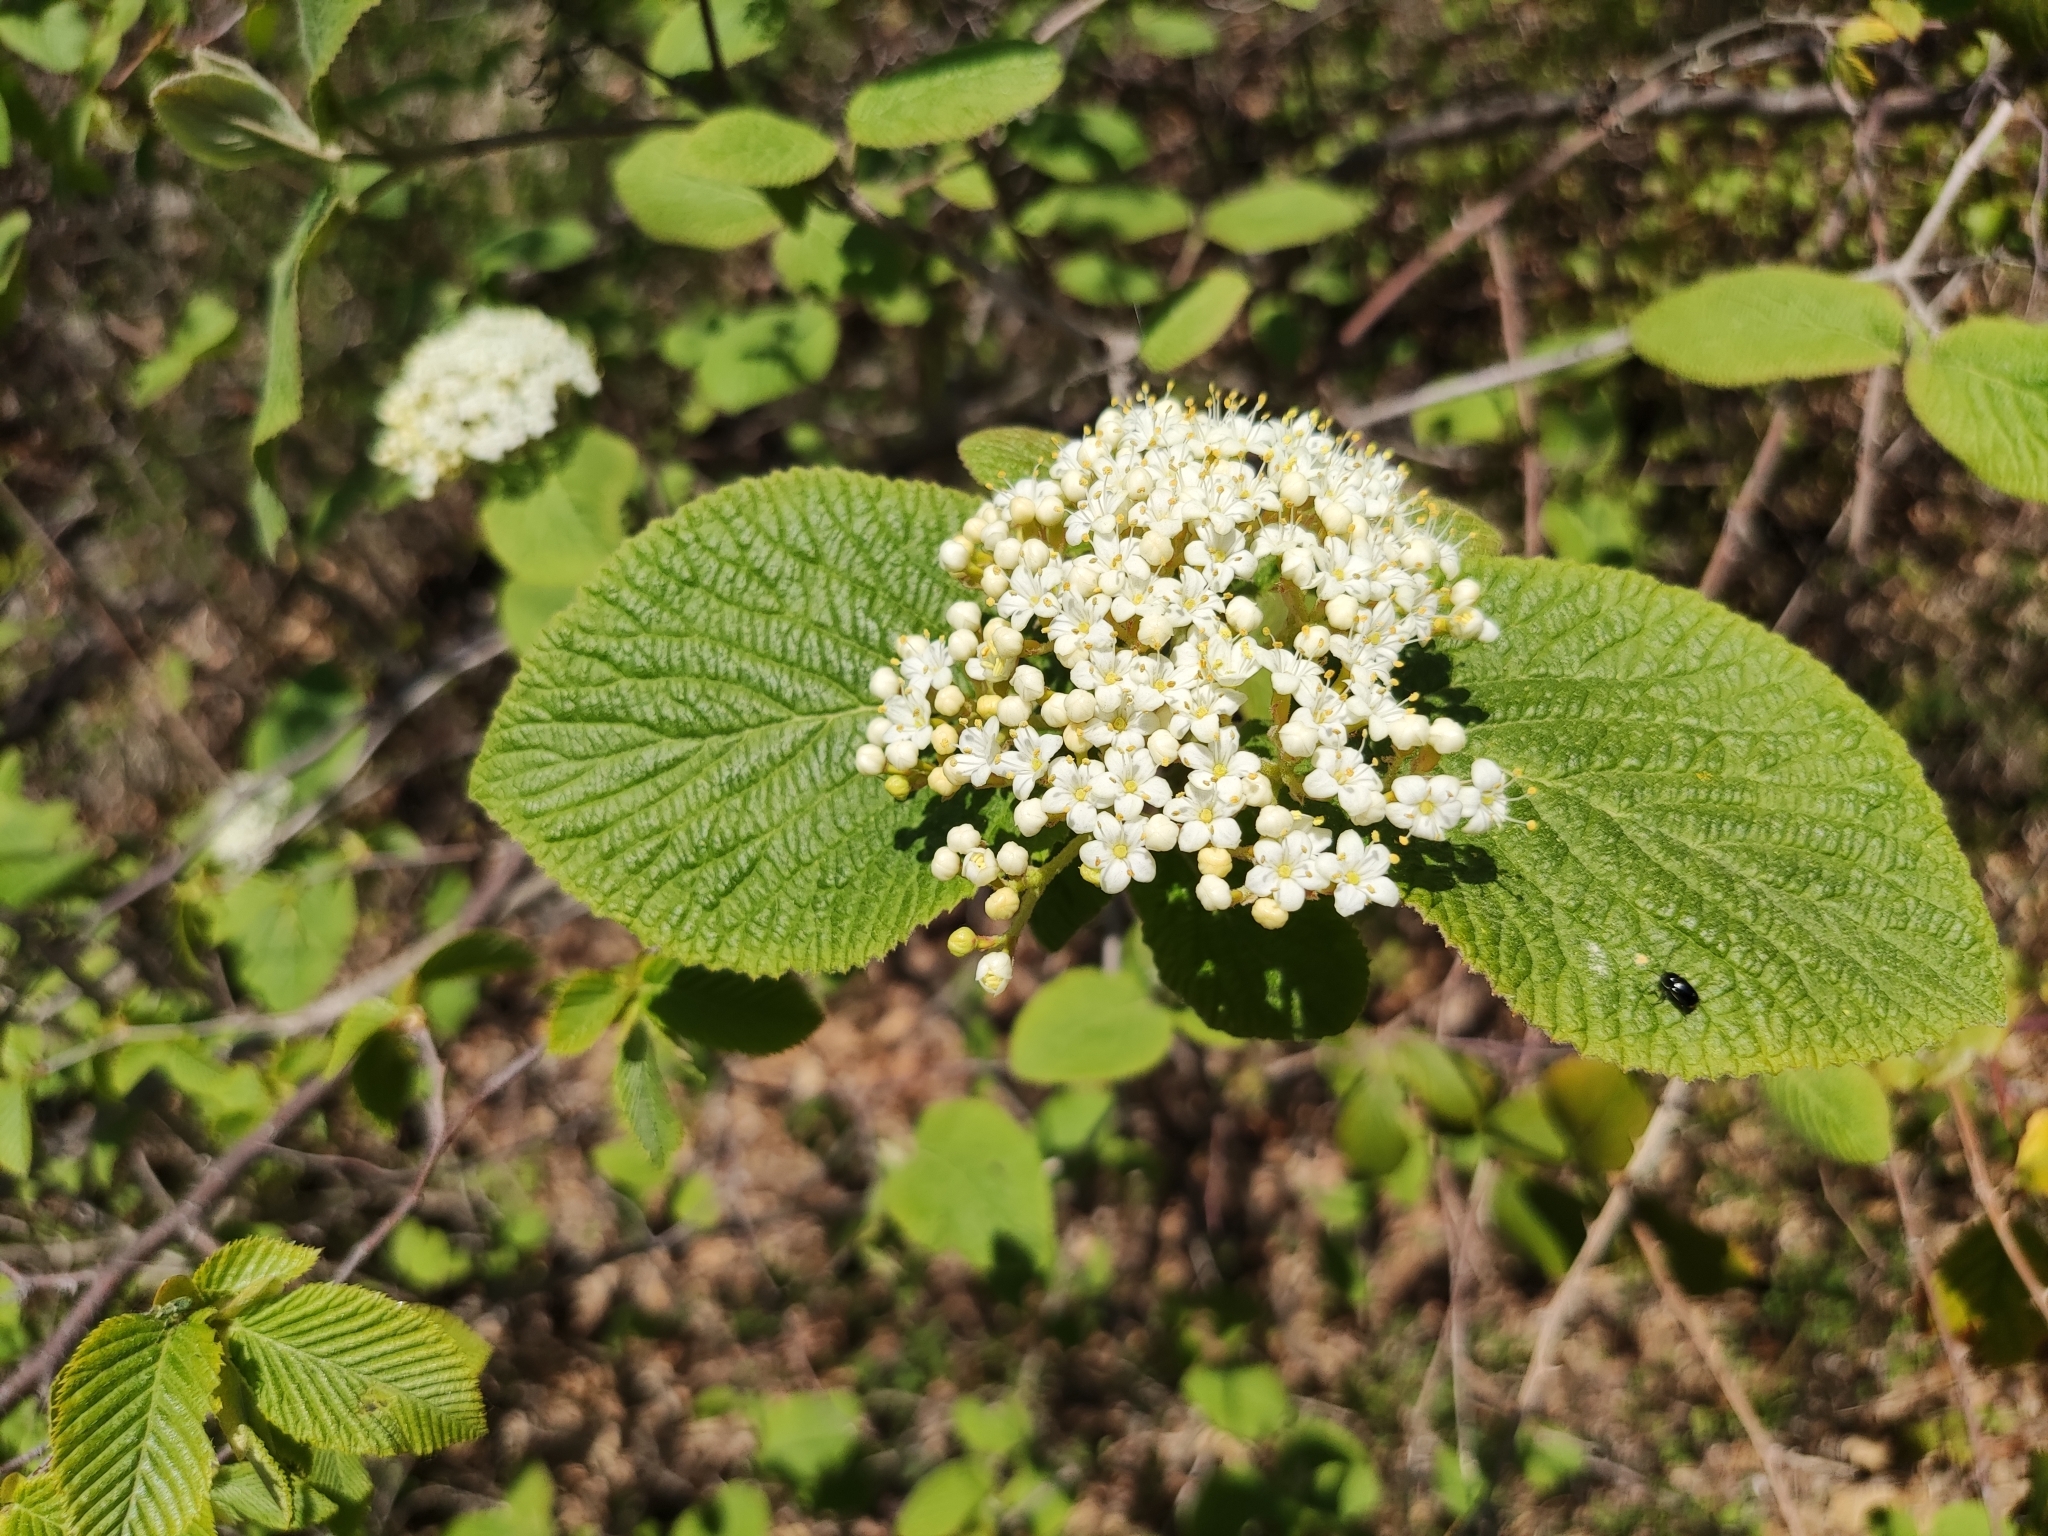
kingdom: Plantae
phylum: Tracheophyta
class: Magnoliopsida
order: Dipsacales
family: Viburnaceae
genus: Viburnum
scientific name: Viburnum lantana
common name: Wayfaring tree
